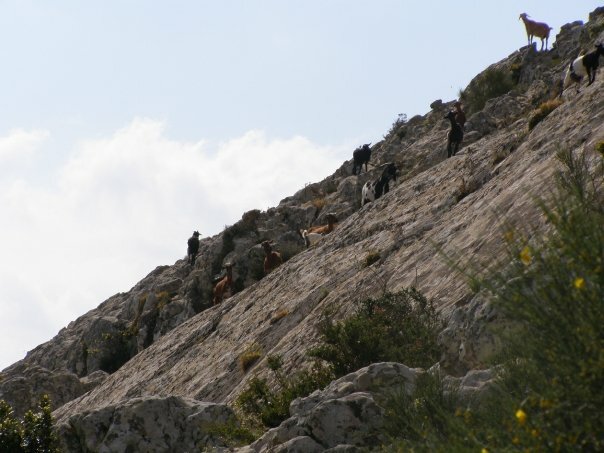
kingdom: Animalia
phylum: Chordata
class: Mammalia
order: Artiodactyla
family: Bovidae
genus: Capra
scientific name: Capra hircus
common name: Domestic goat
